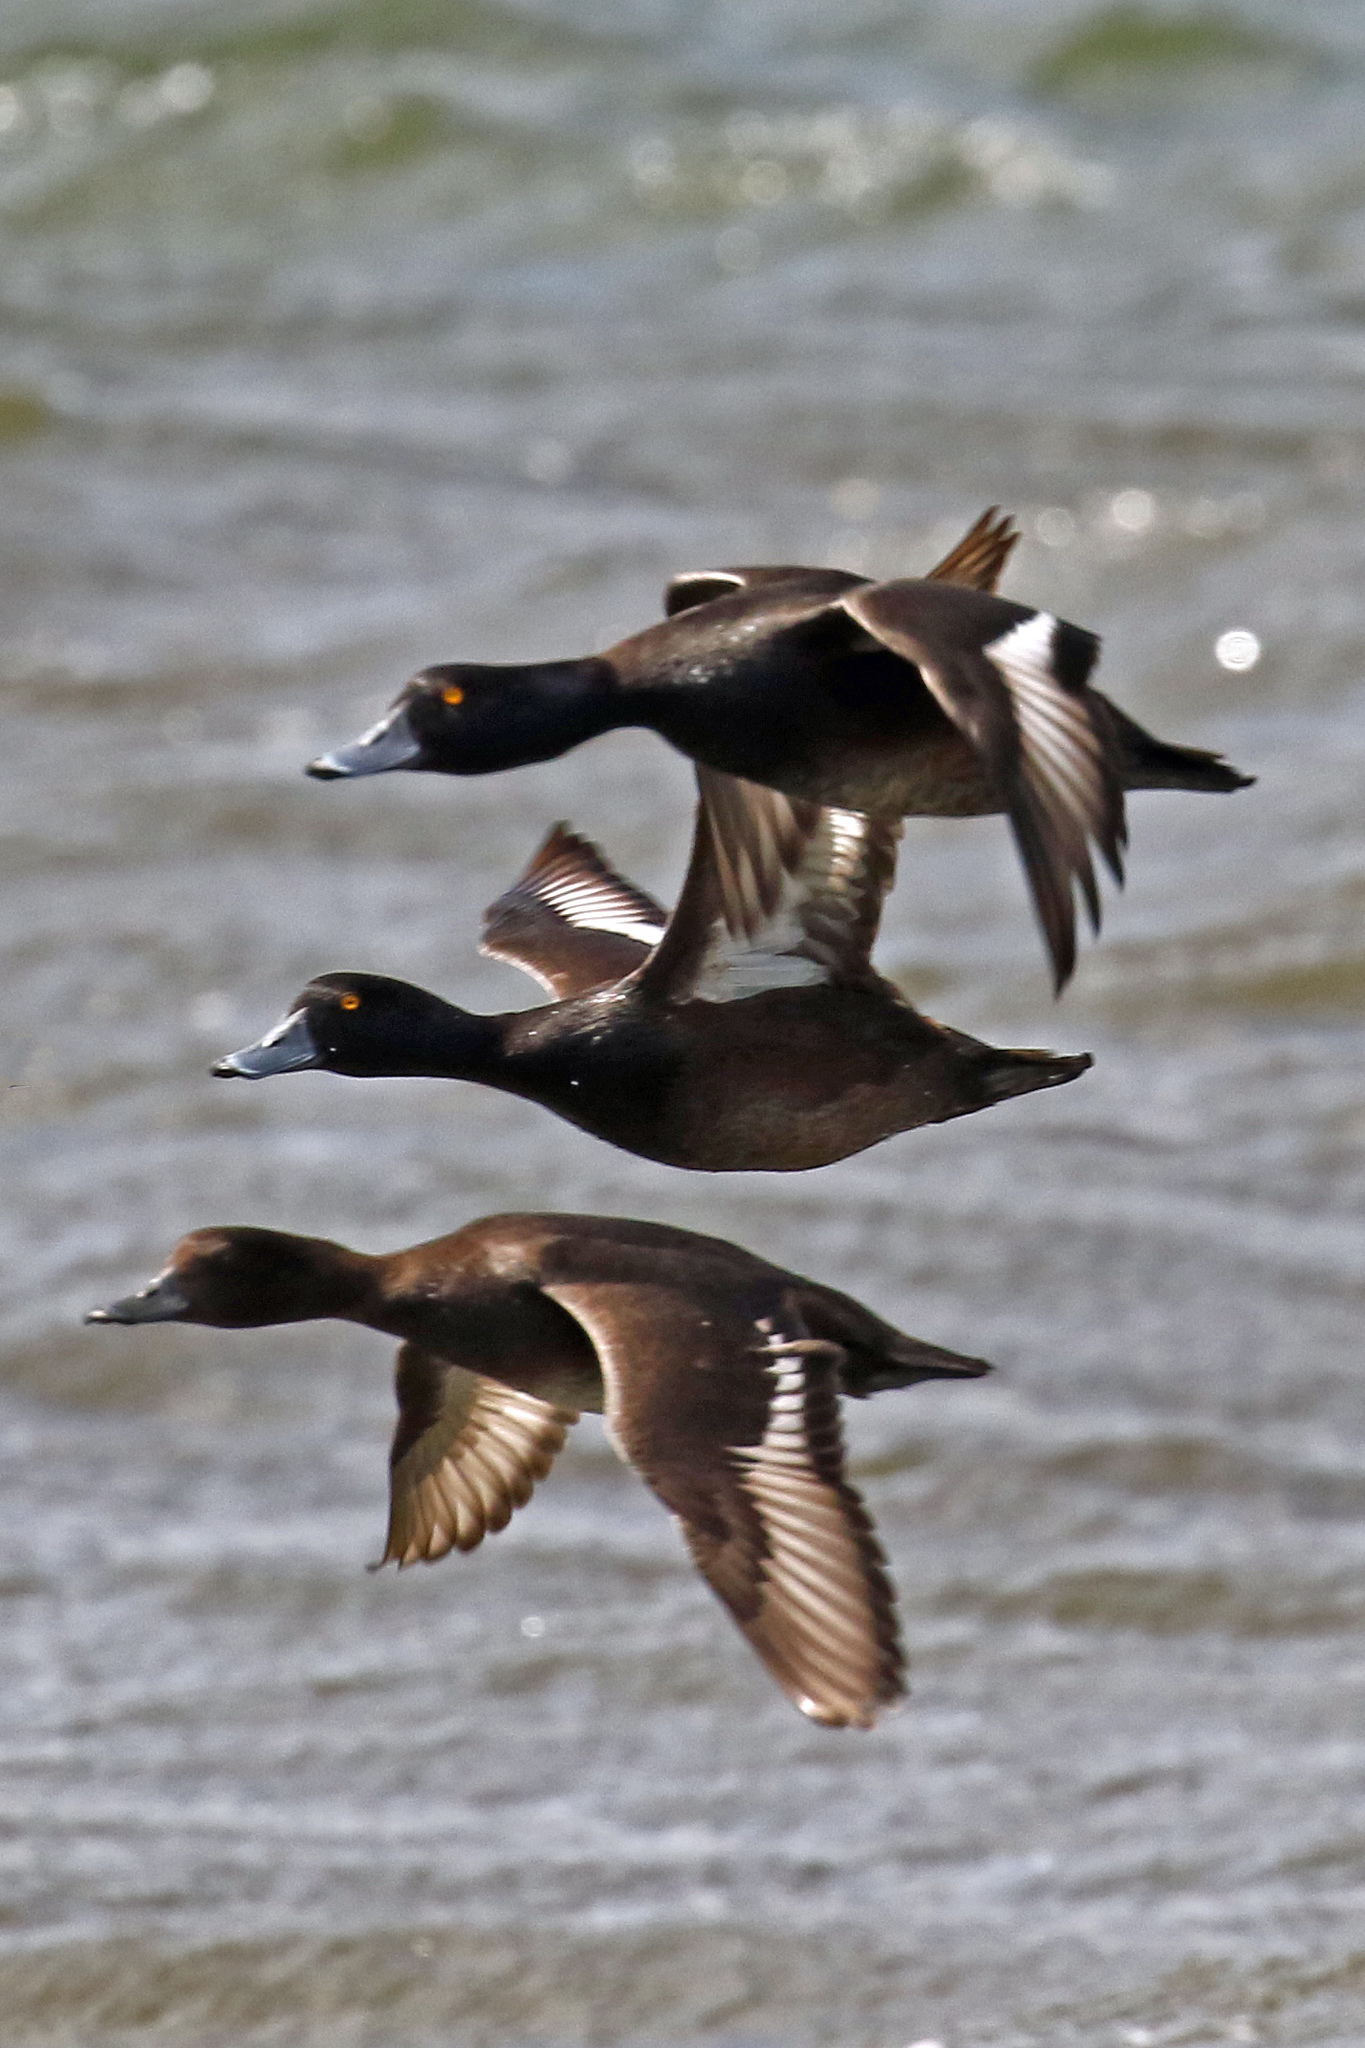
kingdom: Animalia
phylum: Chordata
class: Aves
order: Anseriformes
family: Anatidae
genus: Aythya
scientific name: Aythya novaeseelandiae
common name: New zealand scaup
